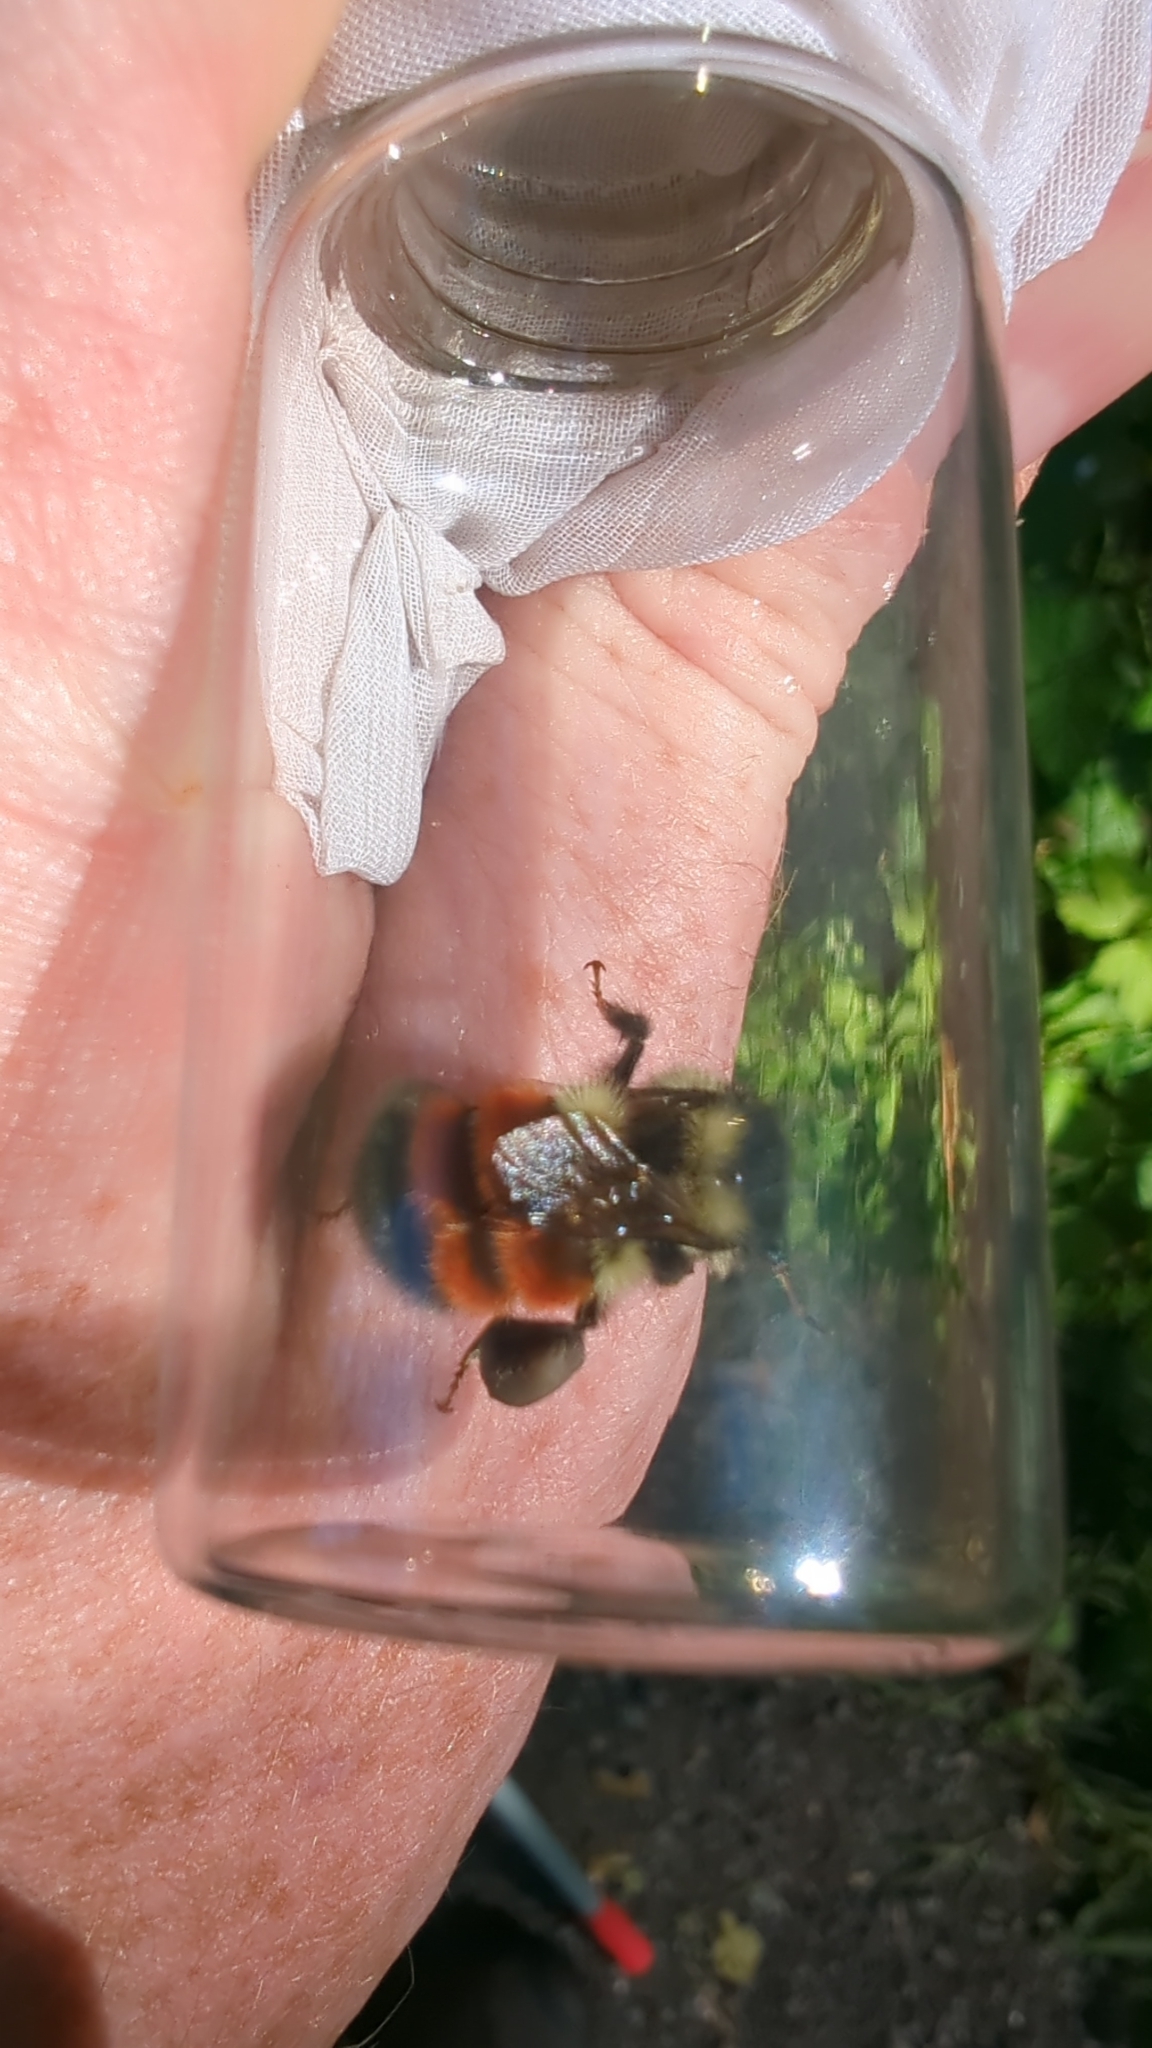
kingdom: Animalia
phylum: Arthropoda
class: Insecta
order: Hymenoptera
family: Apidae
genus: Bombus
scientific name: Bombus melanopygus
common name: Black tail bumble bee
